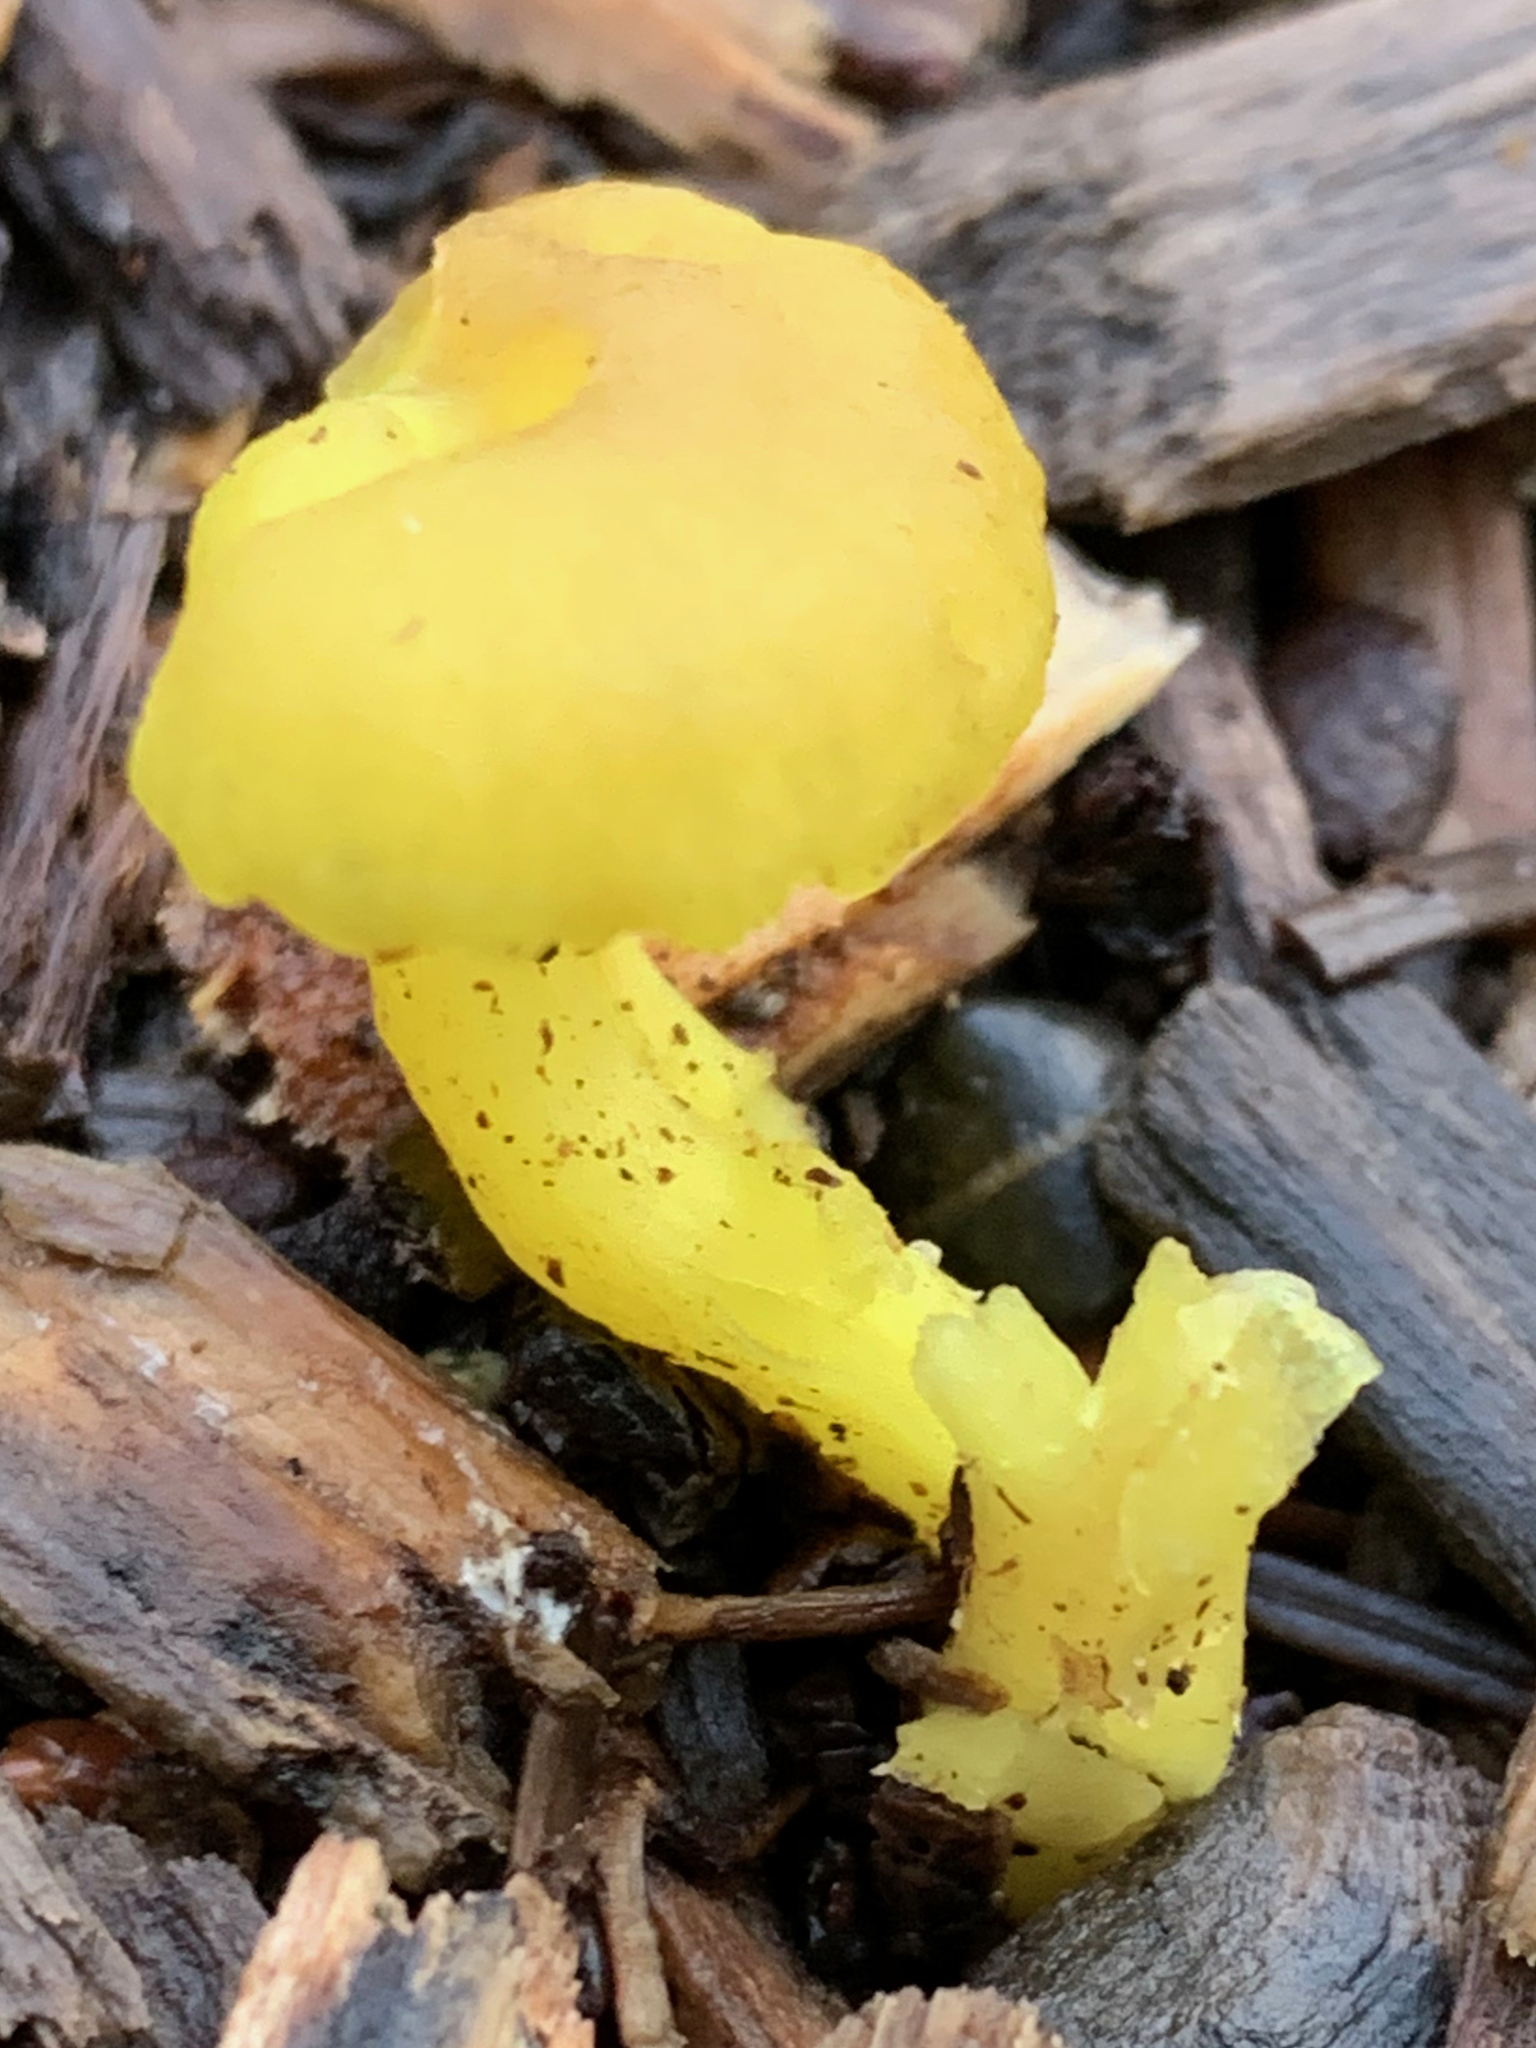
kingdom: Fungi
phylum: Basidiomycota
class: Agaricomycetes
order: Agaricales
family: Hygrophoraceae
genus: Chrysomphalina
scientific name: Chrysomphalina grossula
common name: Green navel
